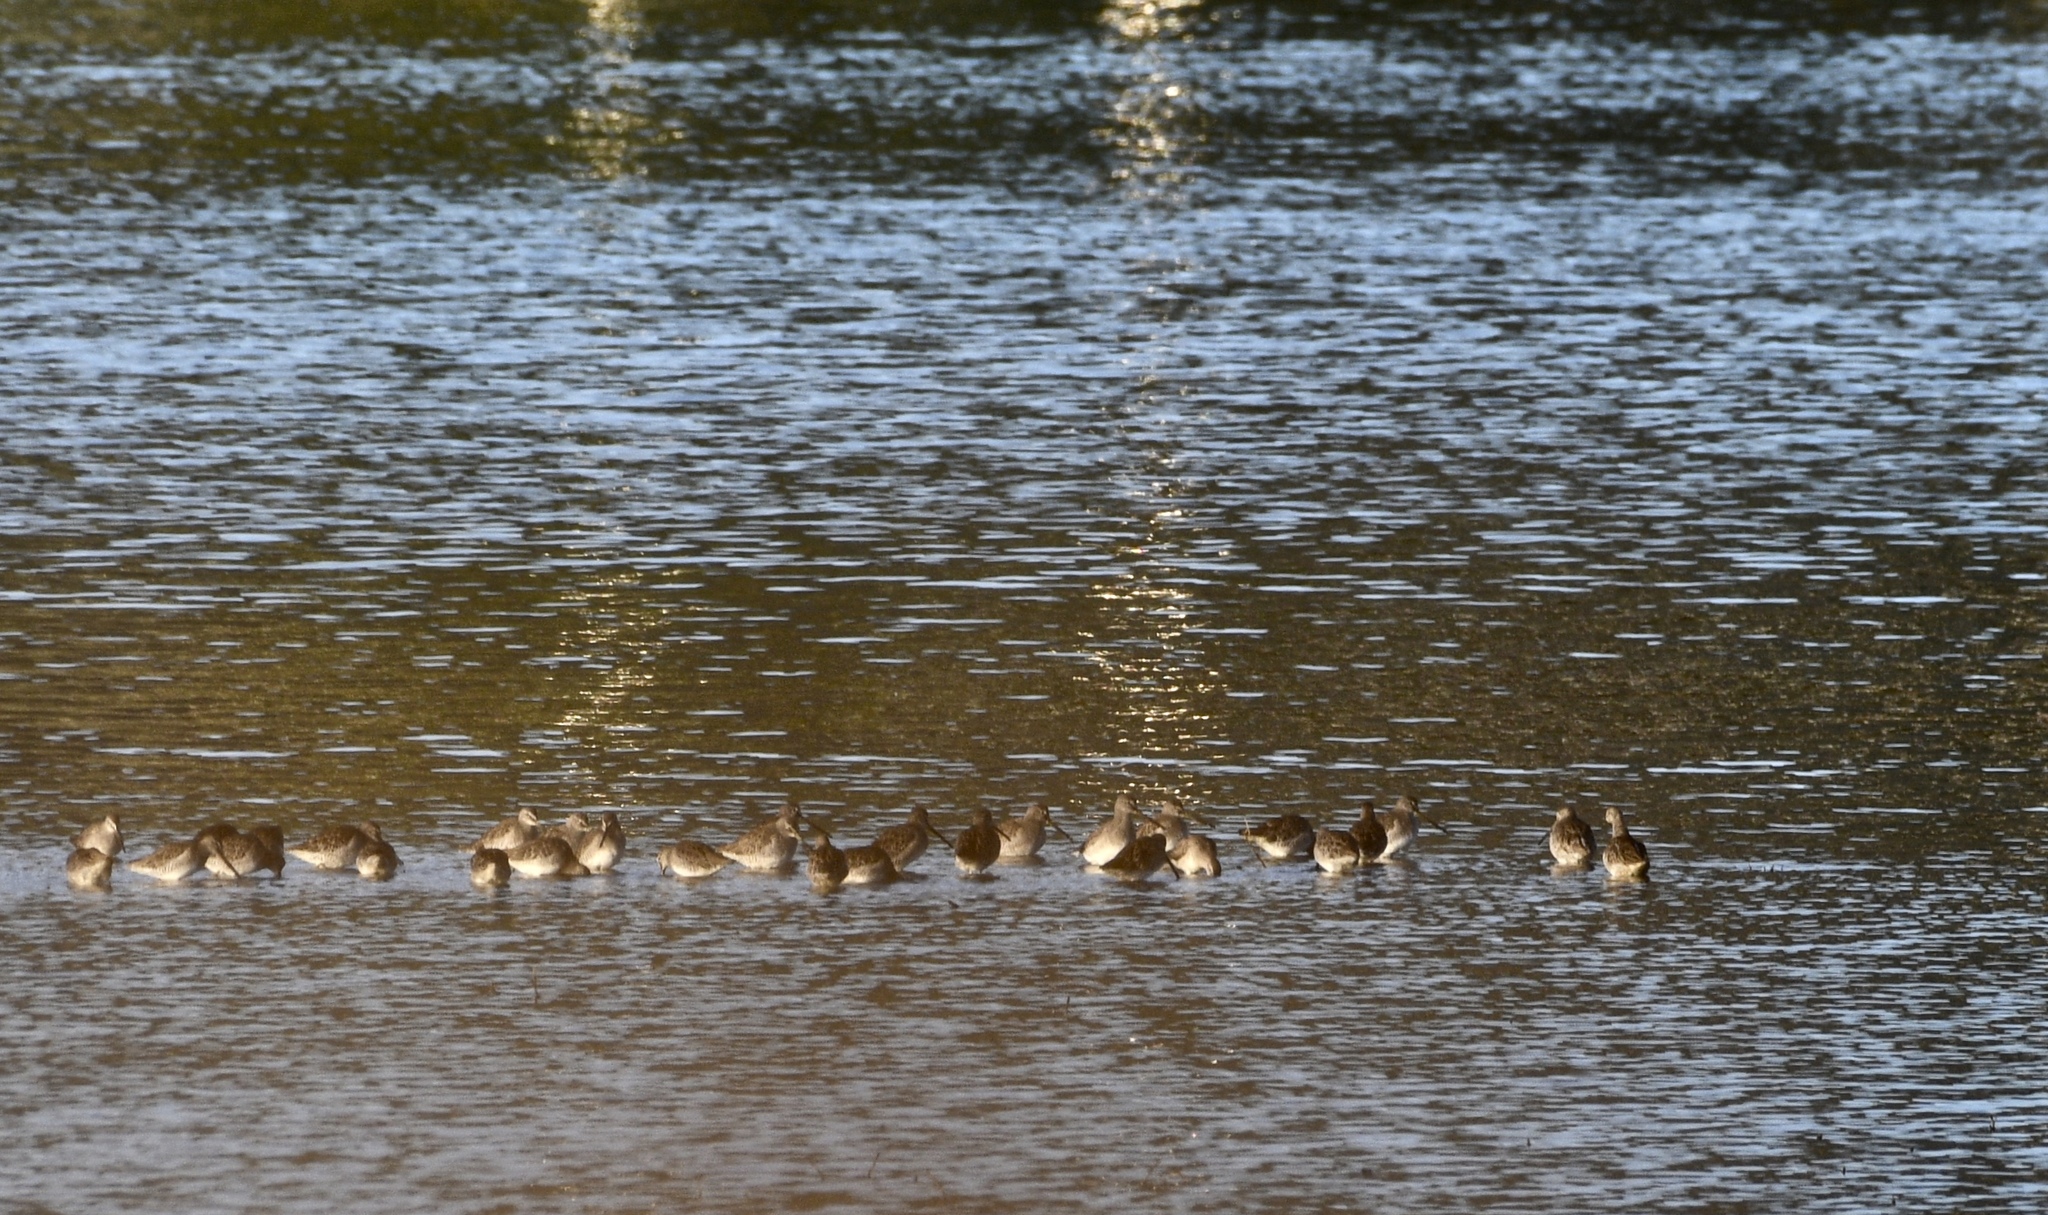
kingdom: Animalia
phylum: Chordata
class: Aves
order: Charadriiformes
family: Scolopacidae
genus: Limnodromus
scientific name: Limnodromus
